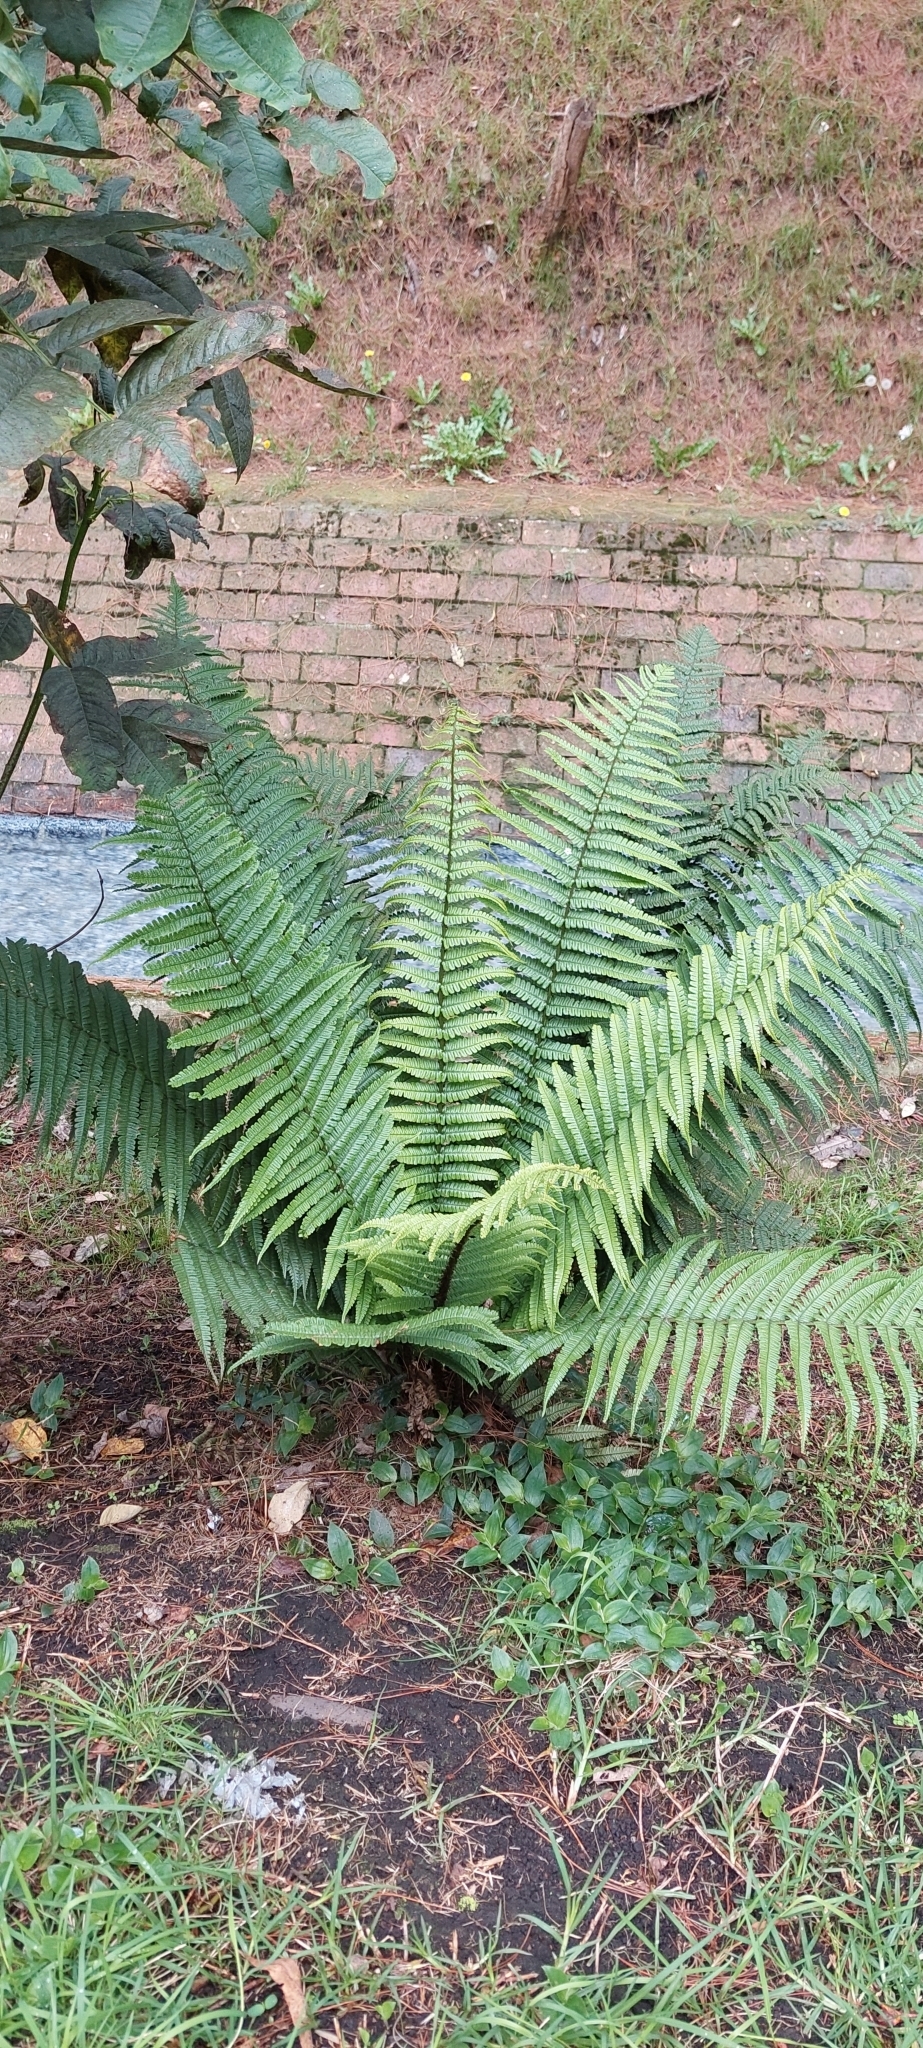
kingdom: Plantae
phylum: Tracheophyta
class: Polypodiopsida
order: Polypodiales
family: Dryopteridaceae
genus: Dryopteris
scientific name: Dryopteris wallichiana
